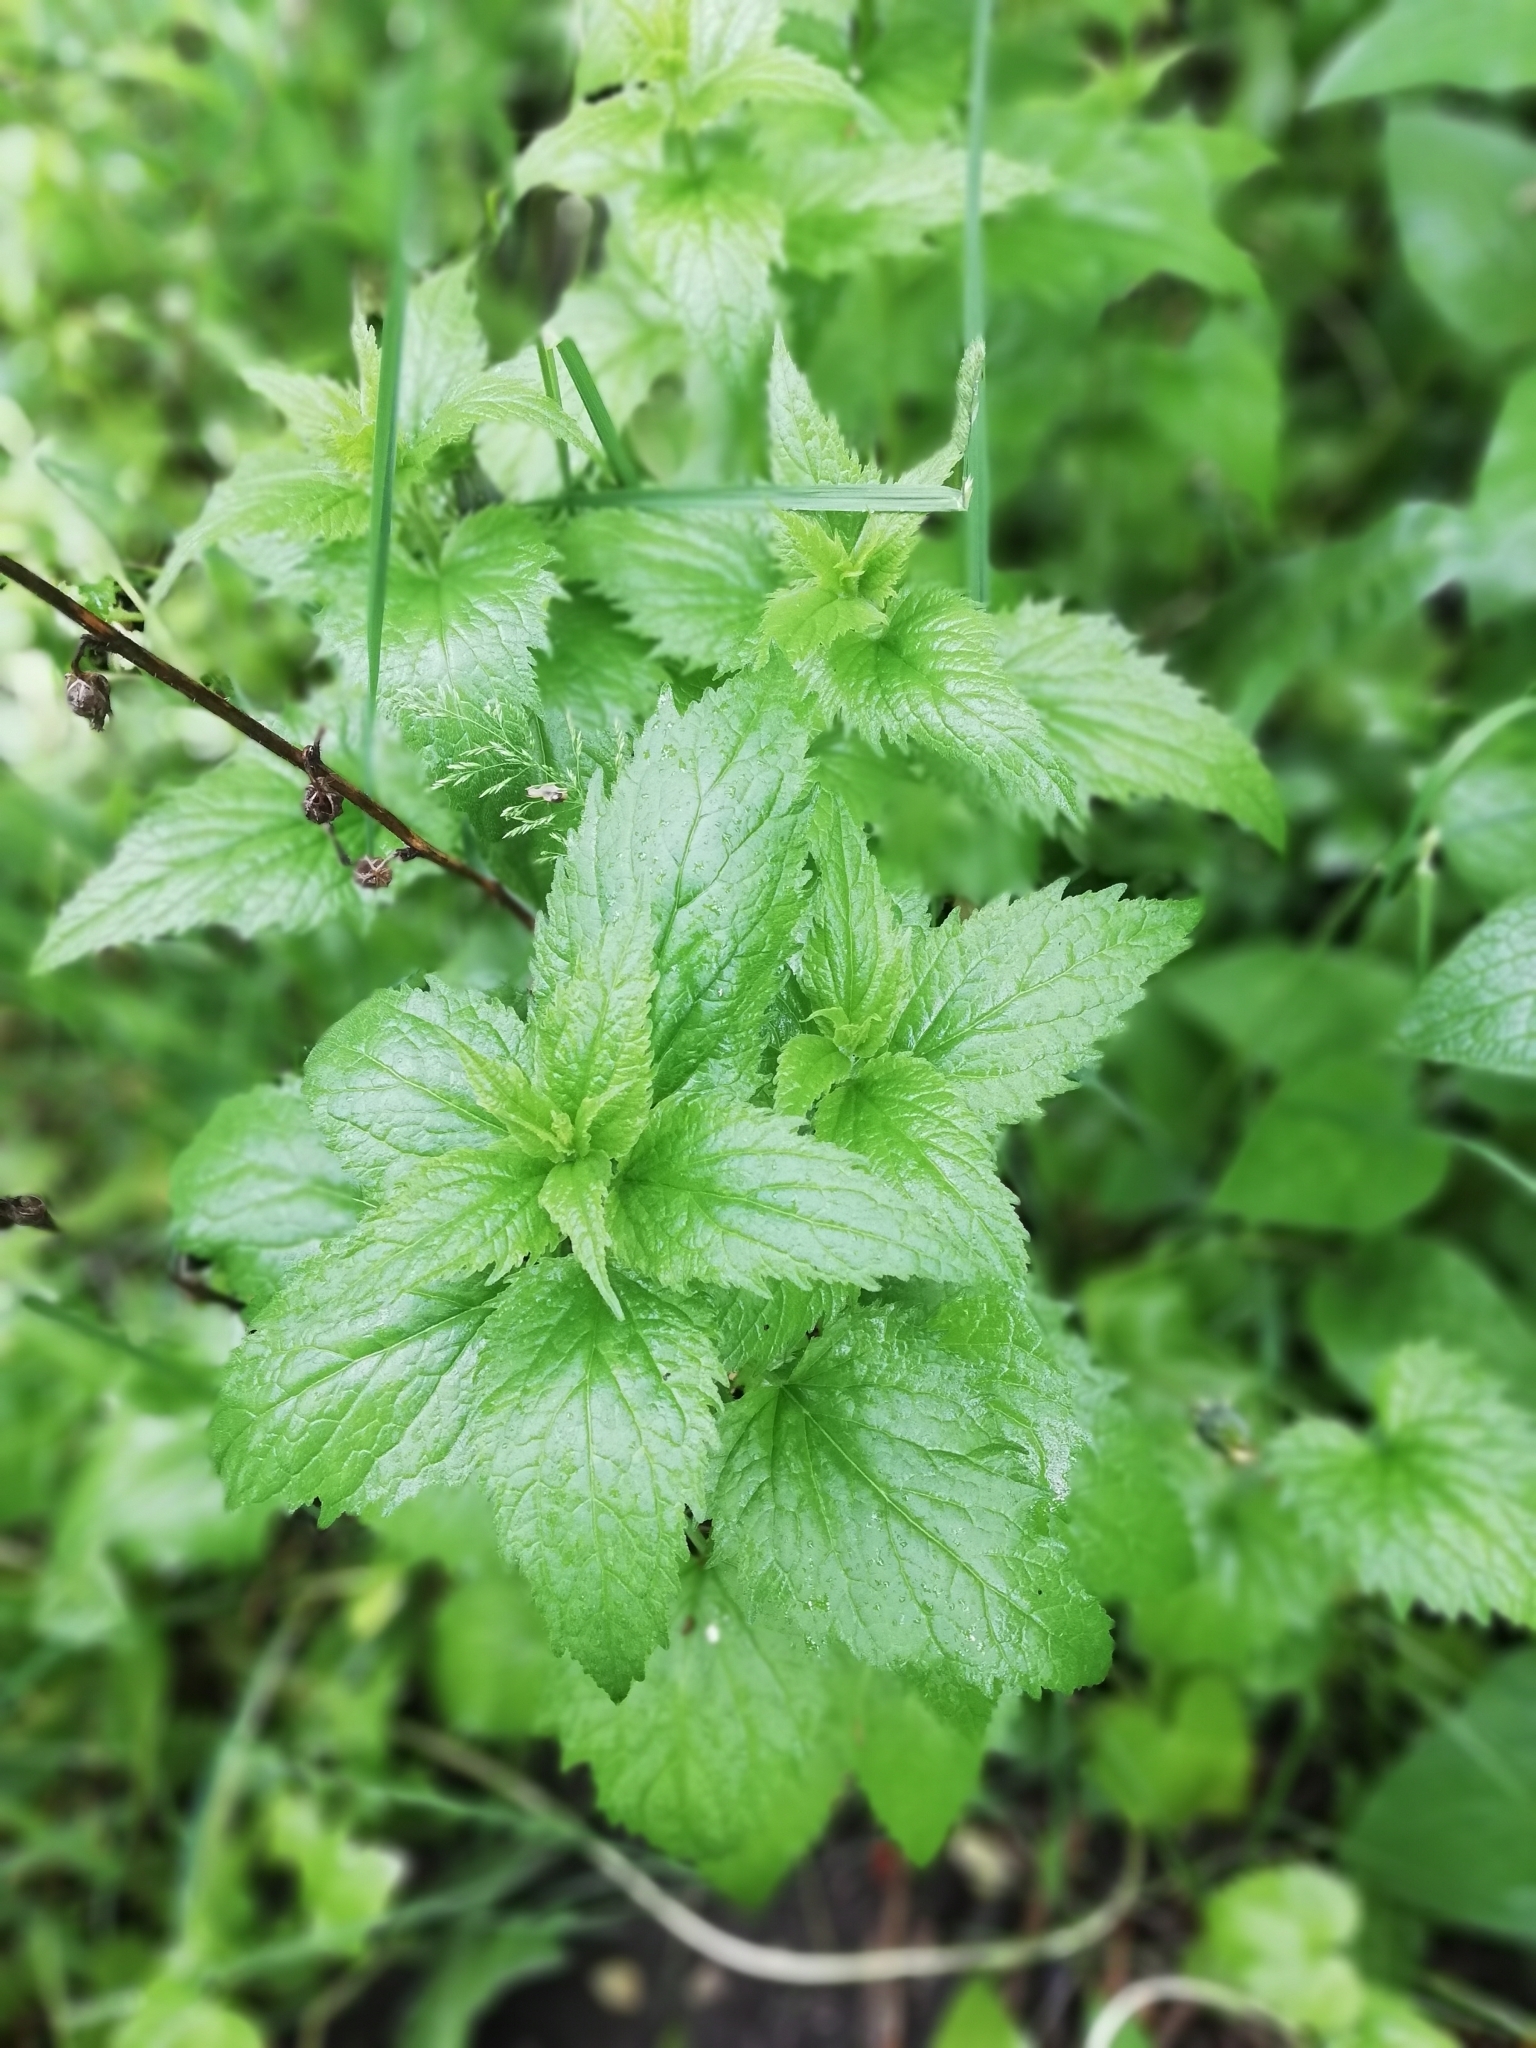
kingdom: Plantae
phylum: Tracheophyta
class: Magnoliopsida
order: Asterales
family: Campanulaceae
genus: Campanula
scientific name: Campanula trachelium
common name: Nettle-leaved bellflower
